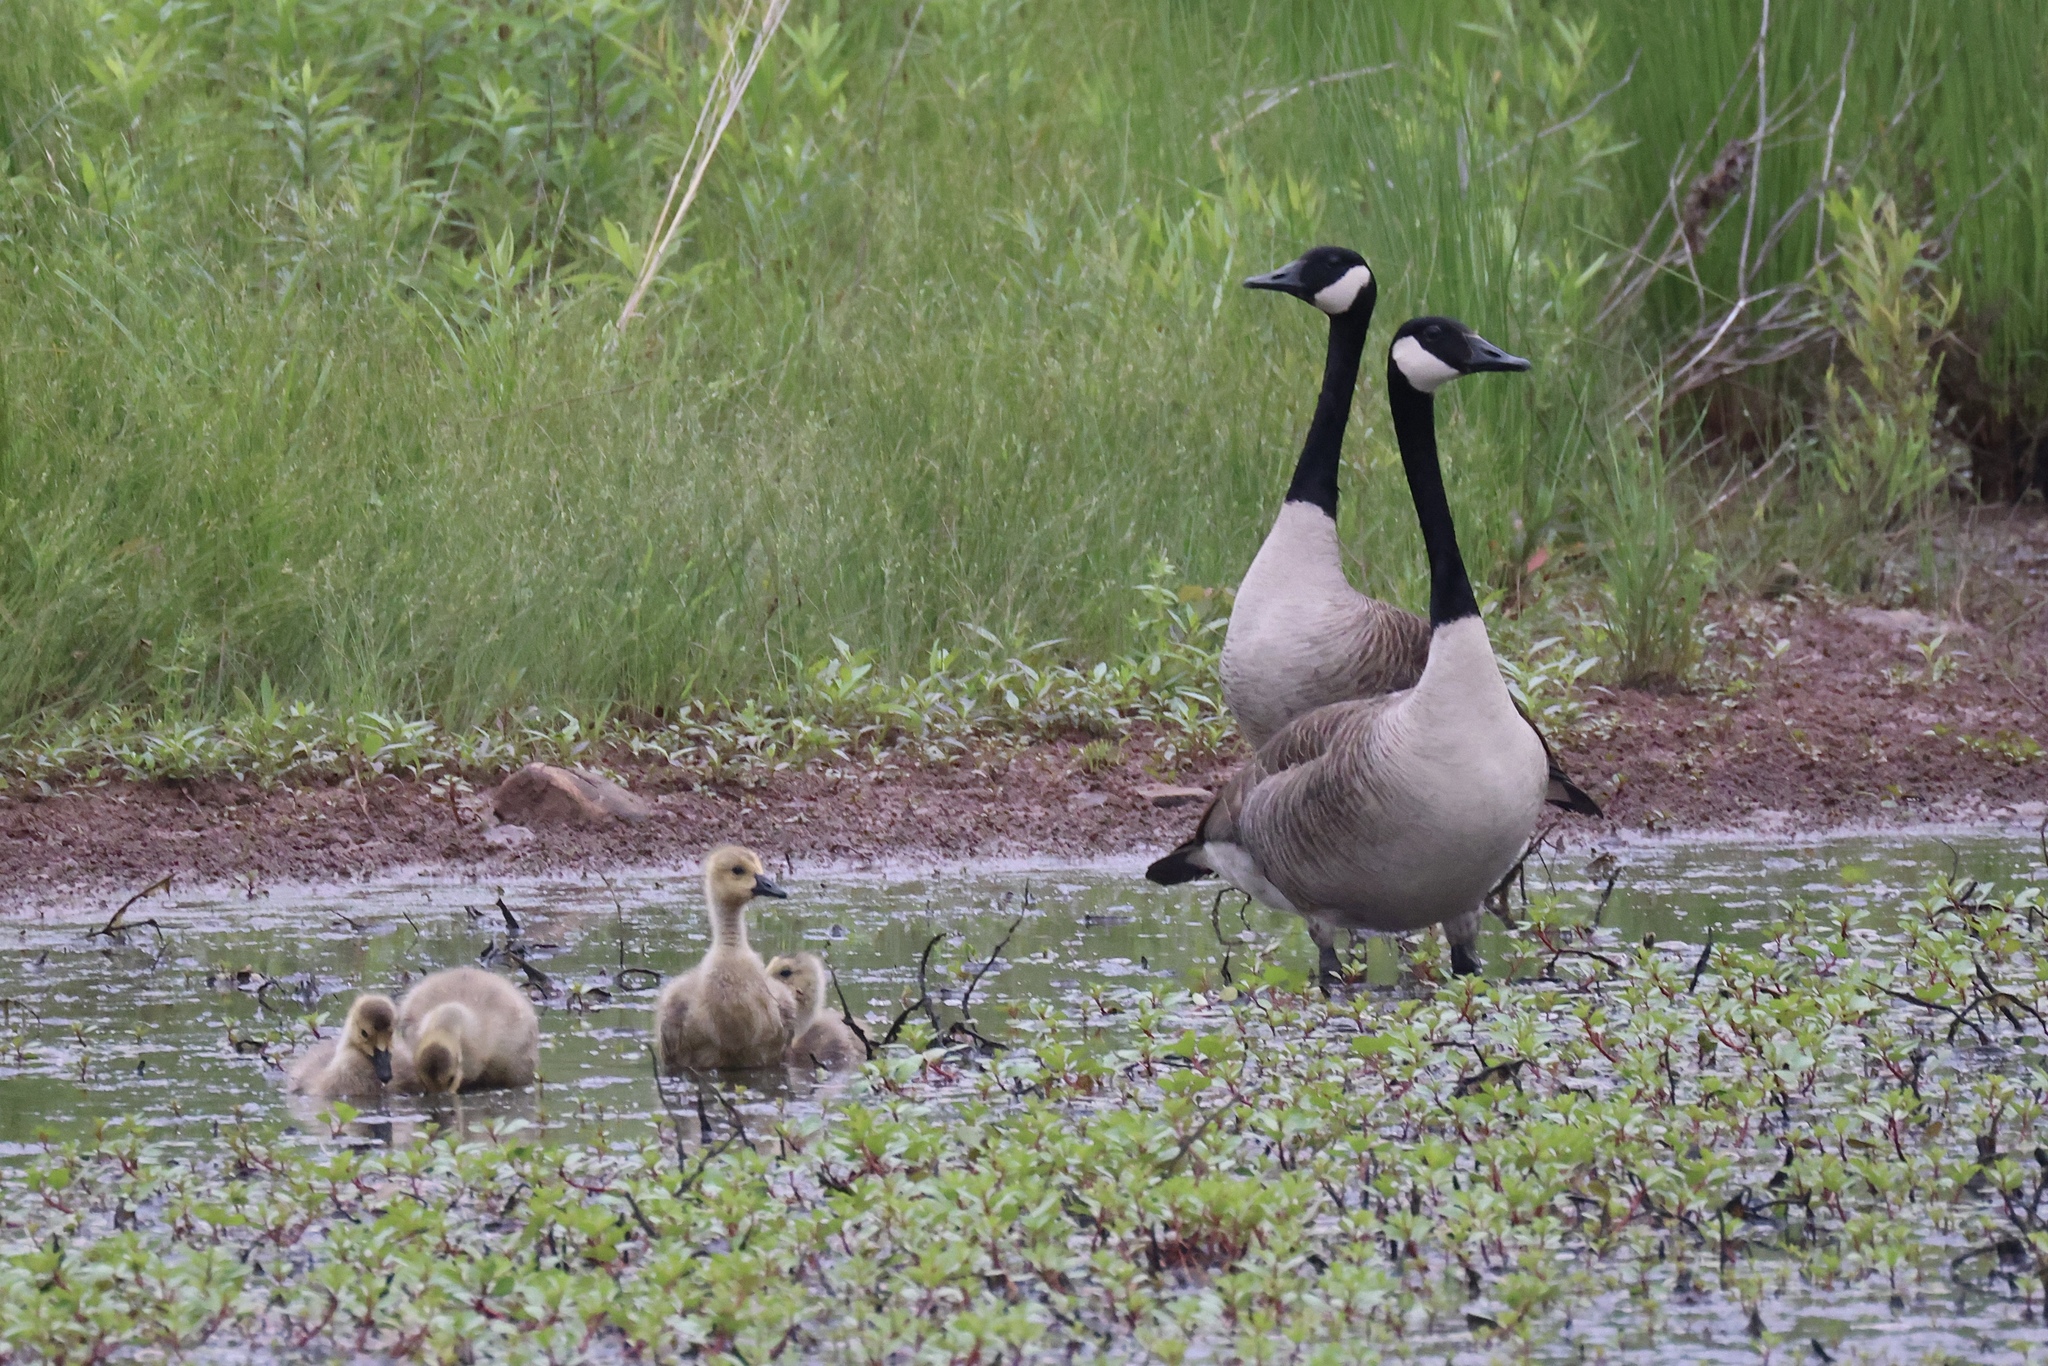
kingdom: Animalia
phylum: Chordata
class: Aves
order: Anseriformes
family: Anatidae
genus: Branta
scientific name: Branta canadensis
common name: Canada goose
